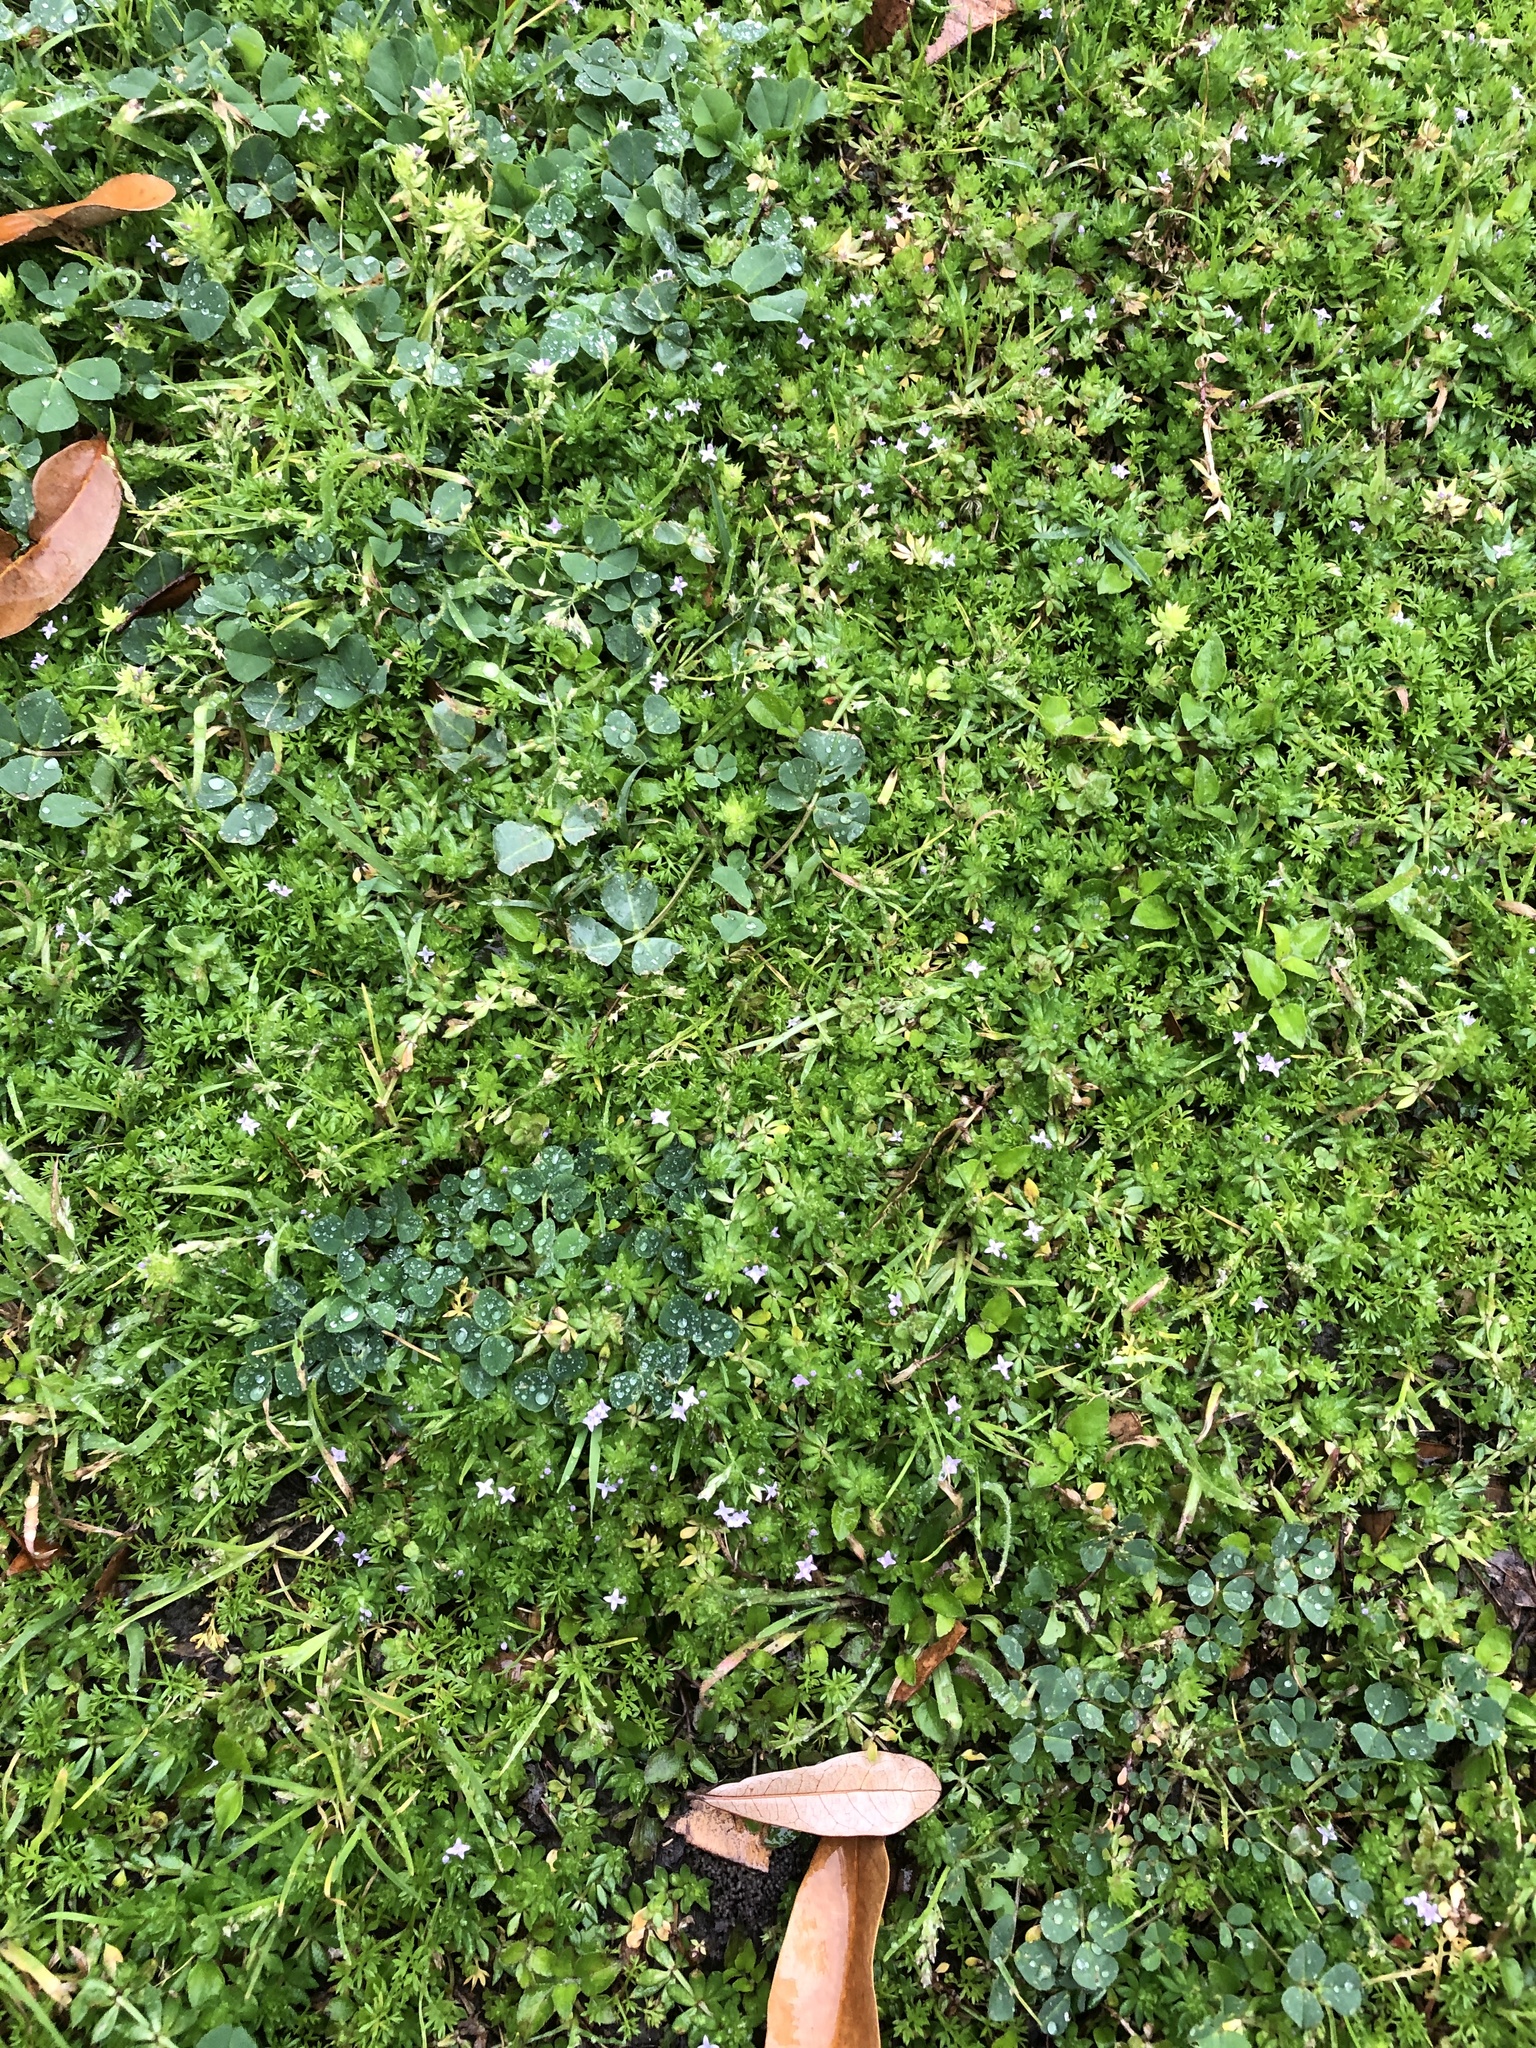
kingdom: Plantae
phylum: Tracheophyta
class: Magnoliopsida
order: Gentianales
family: Rubiaceae
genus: Sherardia
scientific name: Sherardia arvensis
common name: Field madder
